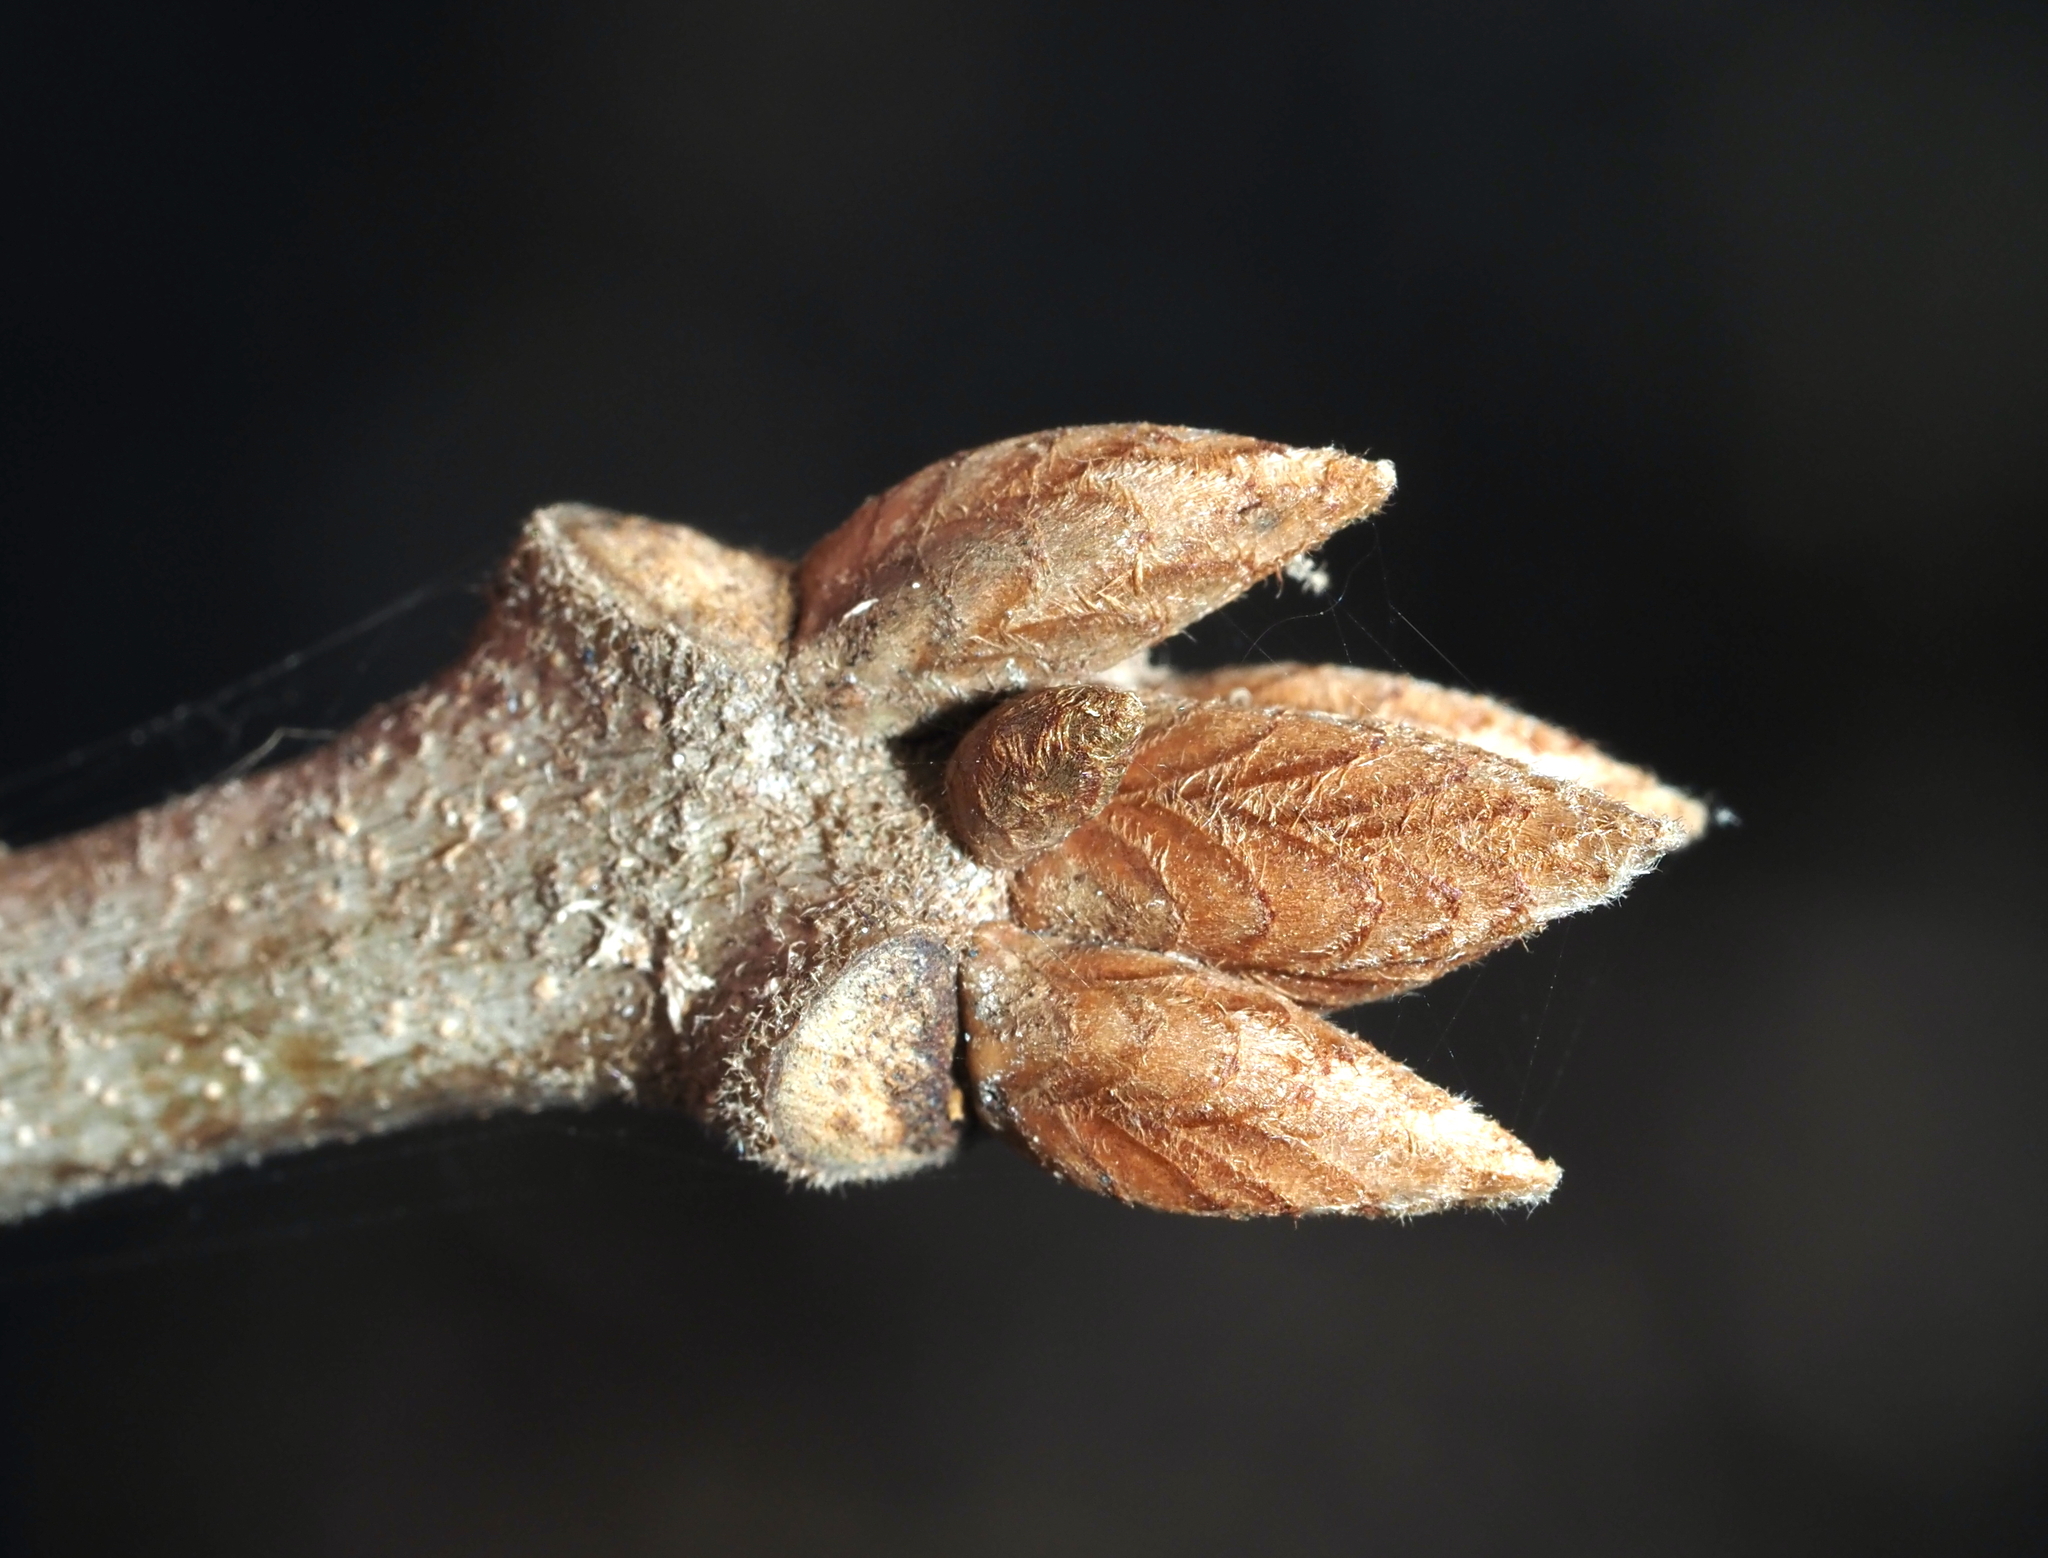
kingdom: Plantae
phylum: Tracheophyta
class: Magnoliopsida
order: Fagales
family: Fagaceae
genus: Quercus
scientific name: Quercus velutina
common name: Black oak
